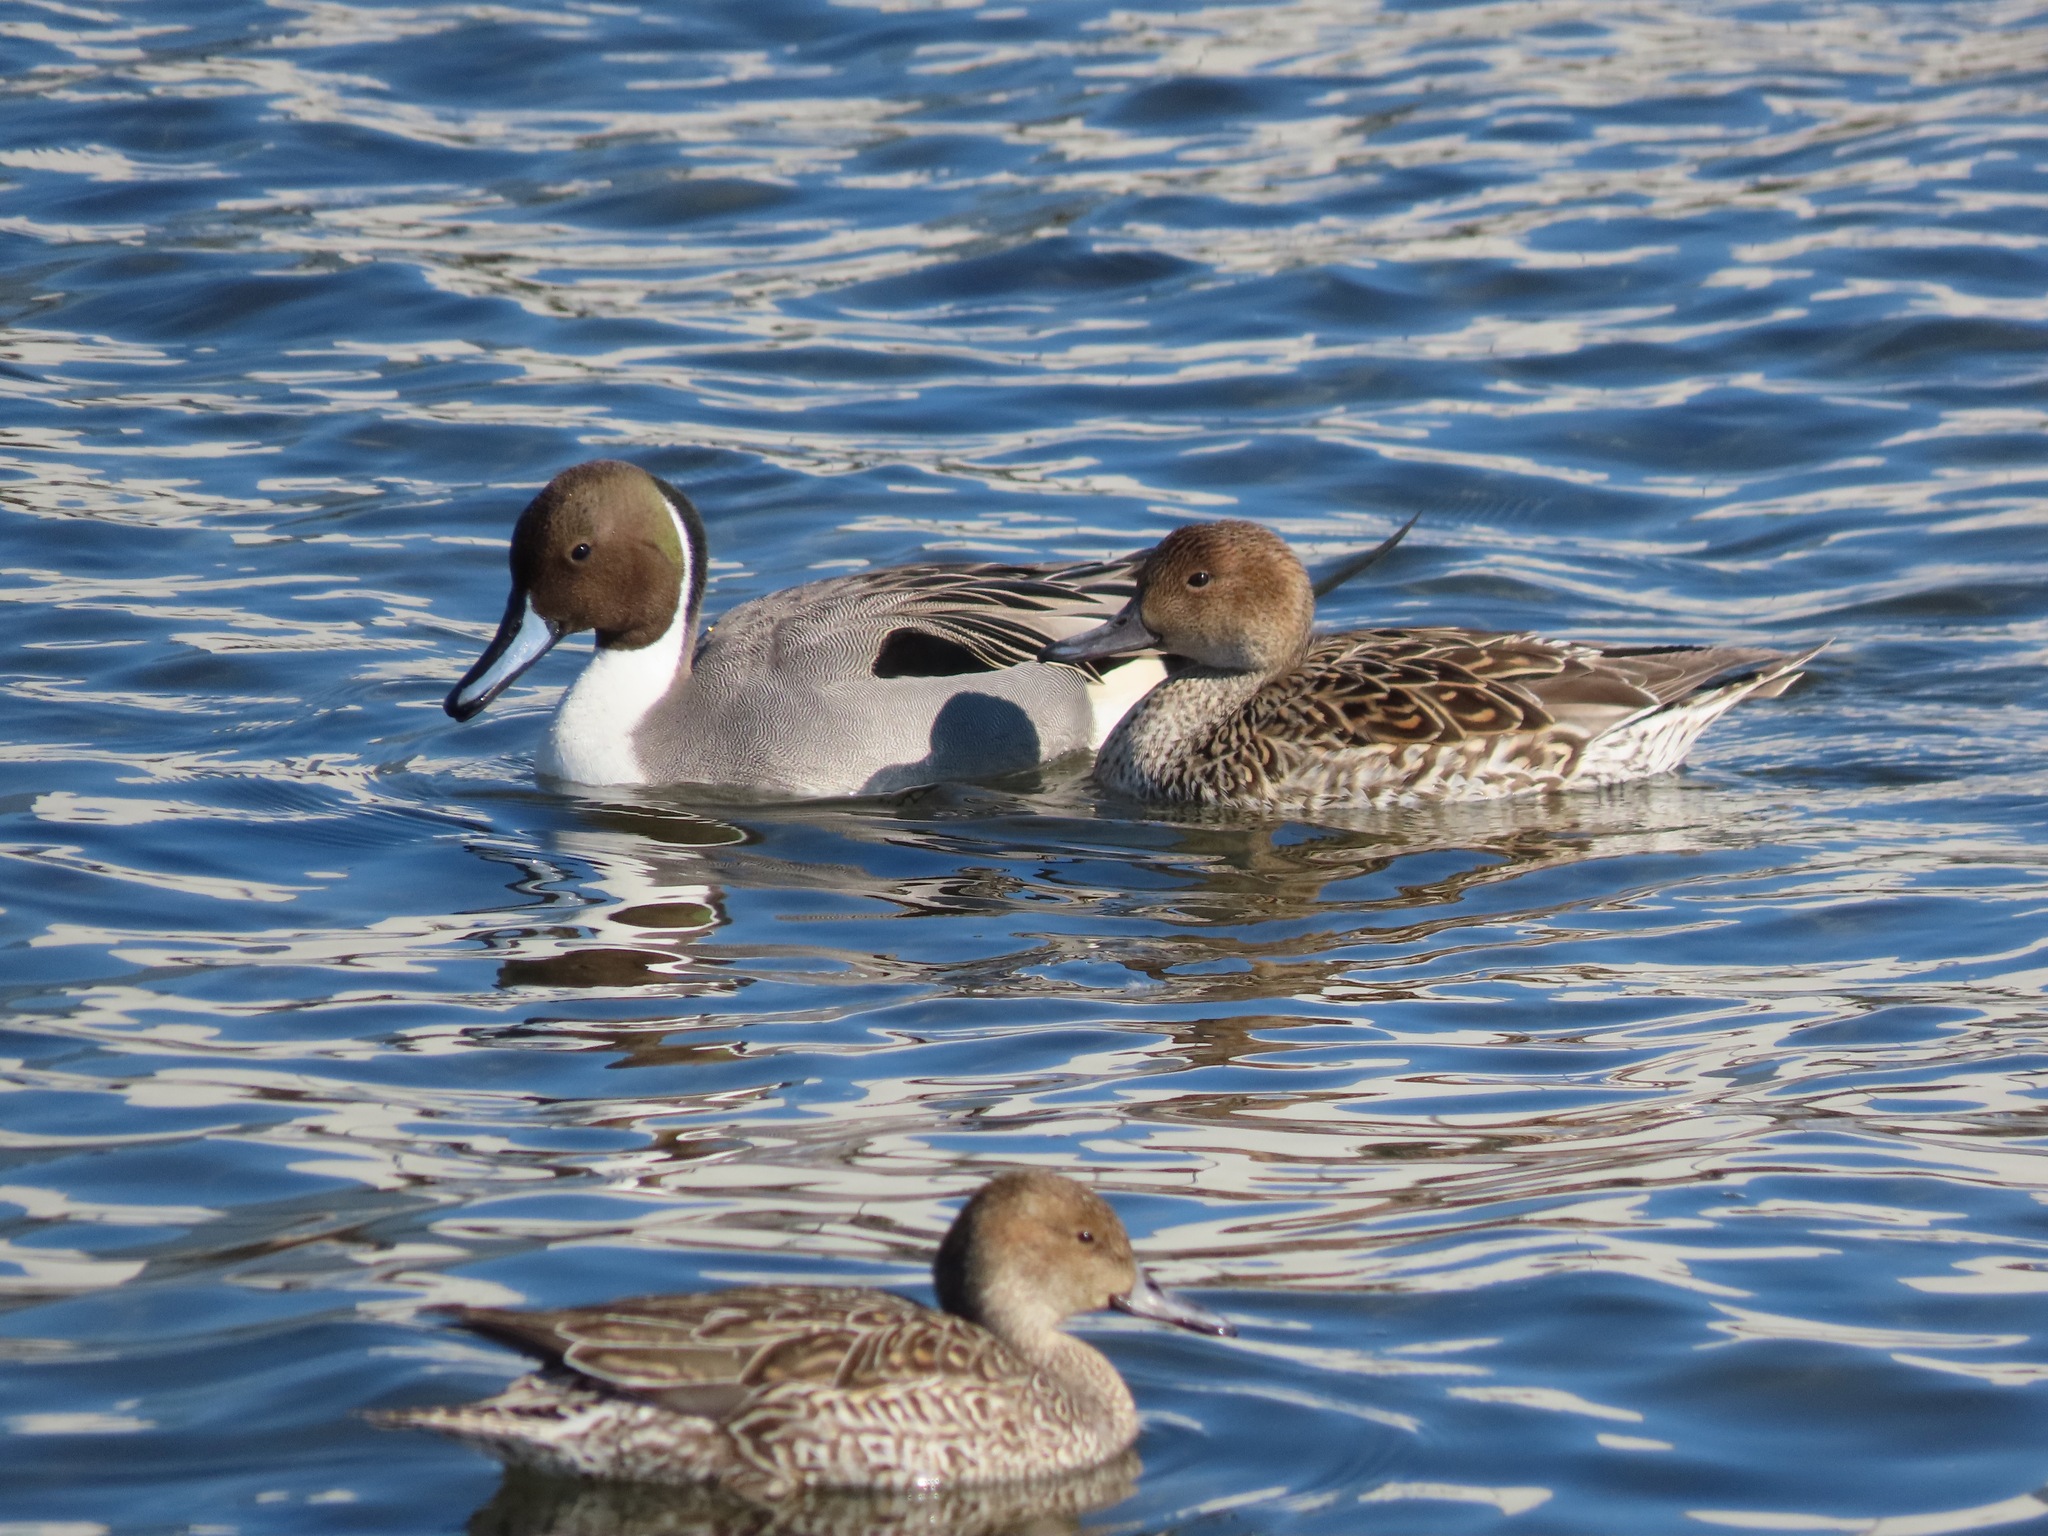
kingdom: Animalia
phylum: Chordata
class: Aves
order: Anseriformes
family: Anatidae
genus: Anas
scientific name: Anas acuta
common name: Northern pintail
